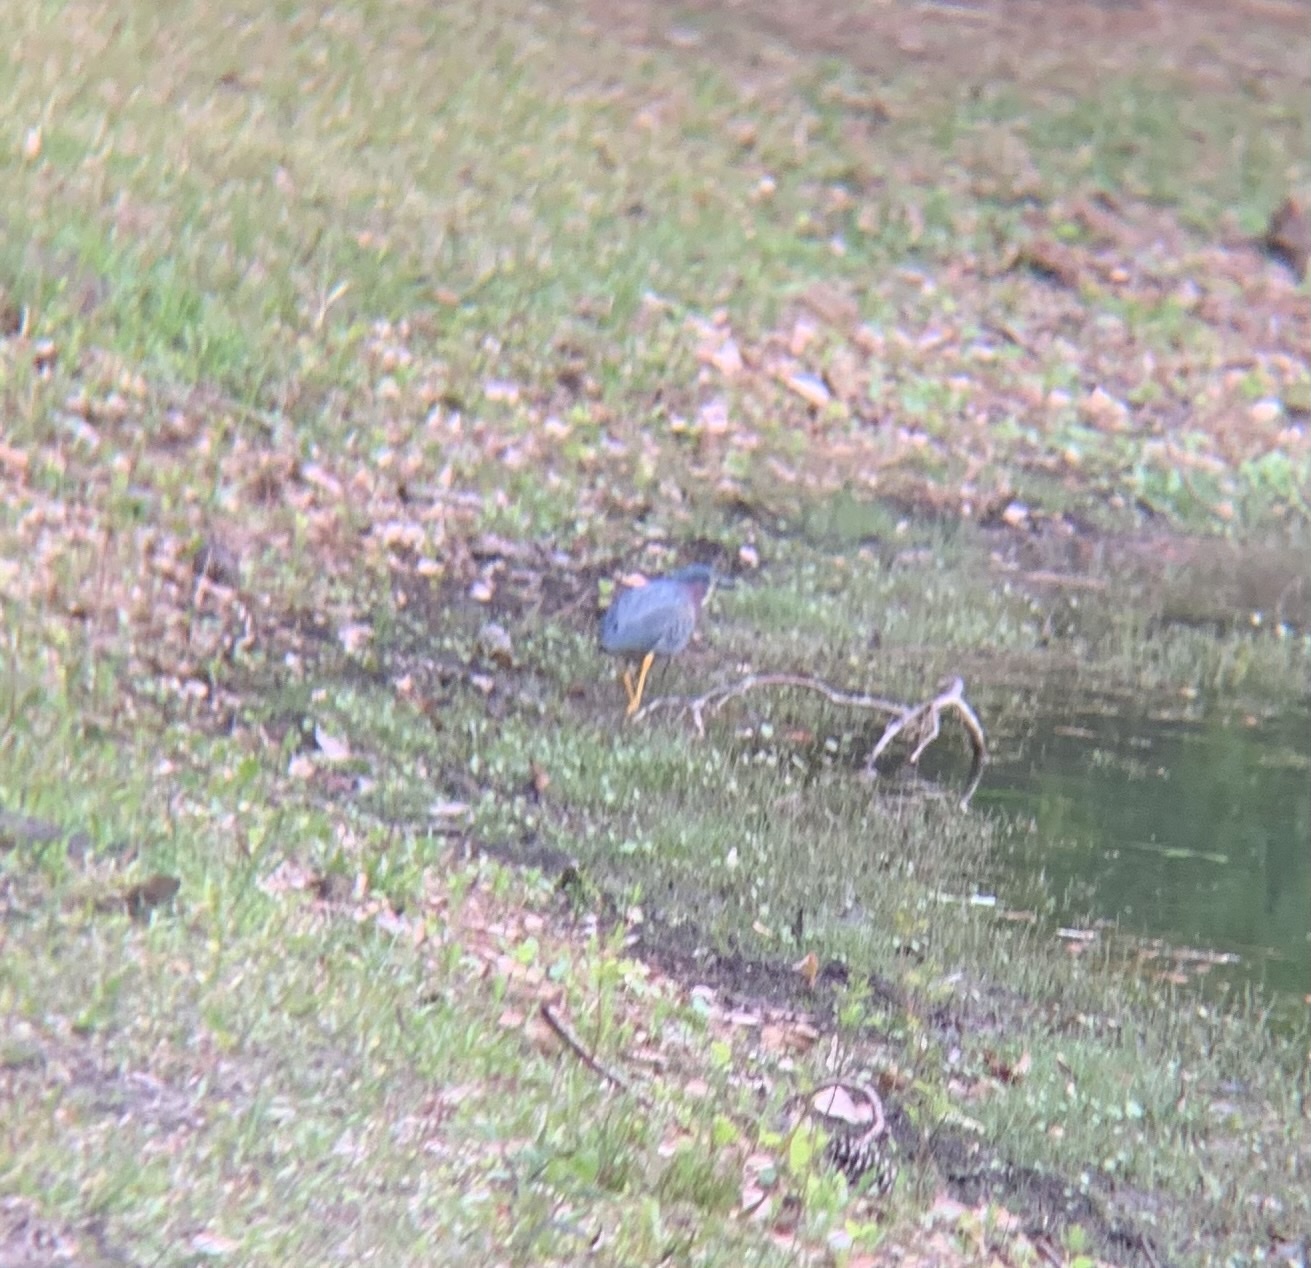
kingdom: Animalia
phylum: Chordata
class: Aves
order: Pelecaniformes
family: Ardeidae
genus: Butorides
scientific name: Butorides virescens
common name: Green heron
